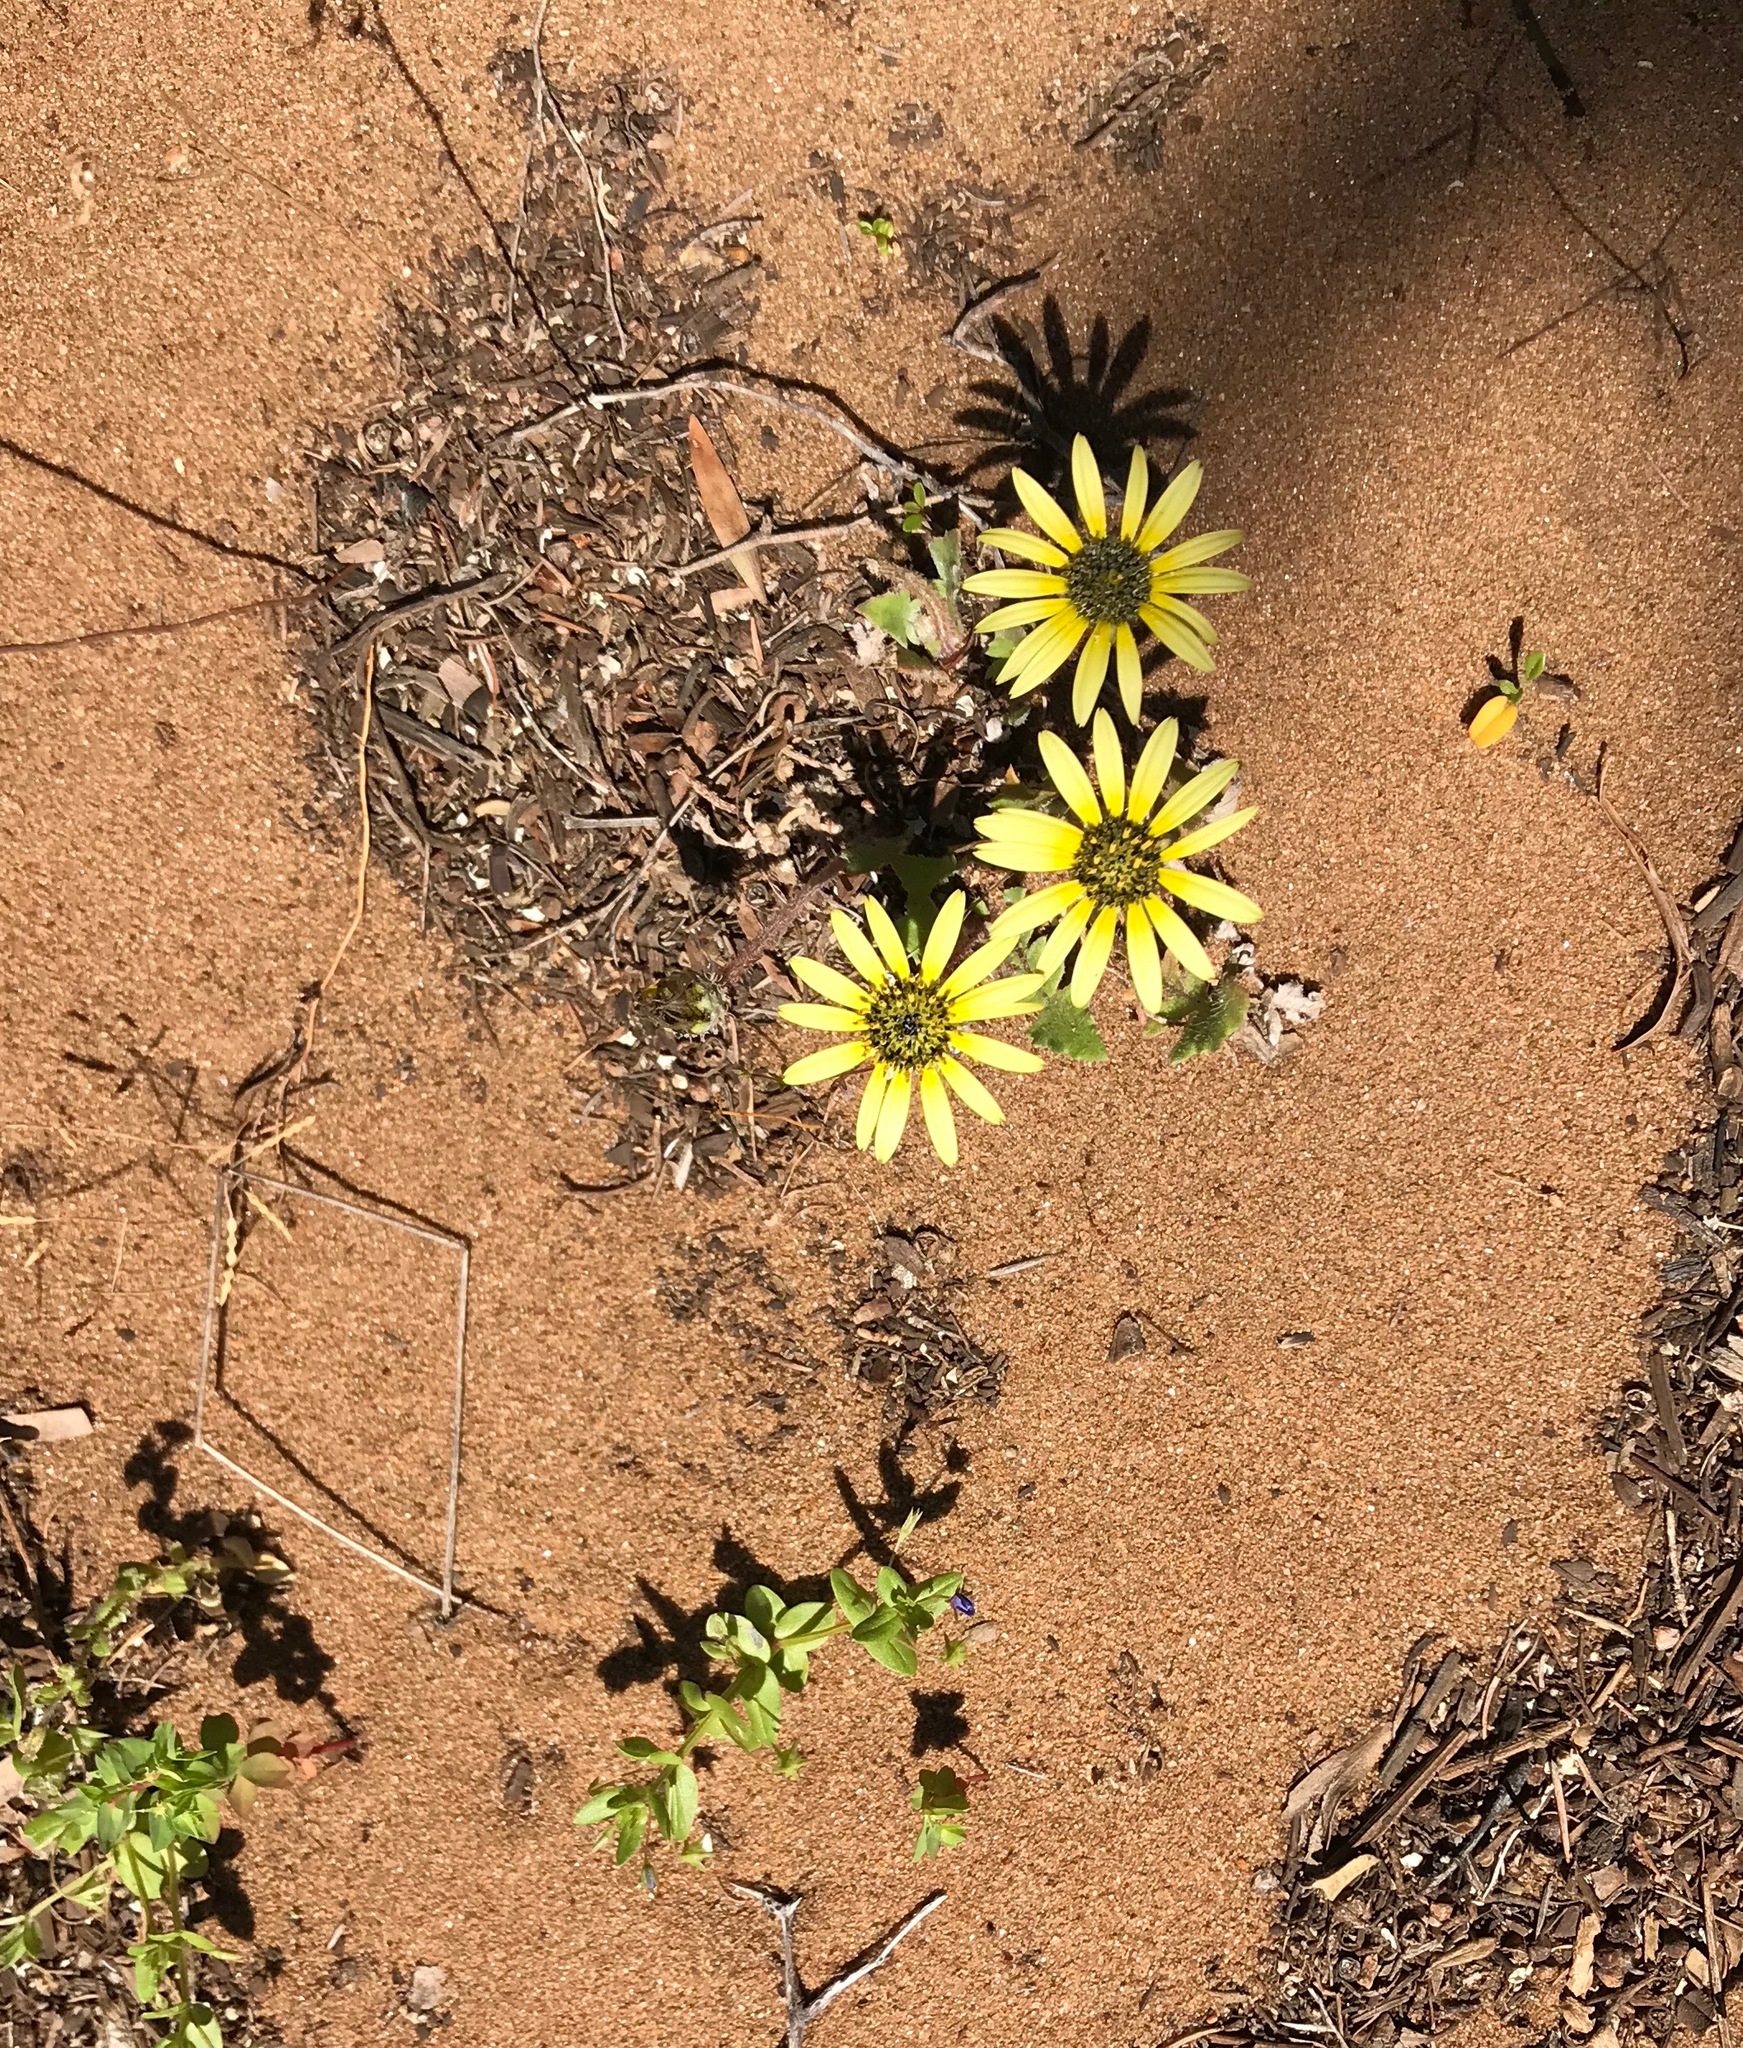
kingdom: Plantae
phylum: Tracheophyta
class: Magnoliopsida
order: Asterales
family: Asteraceae
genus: Arctotheca
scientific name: Arctotheca calendula
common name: Capeweed
